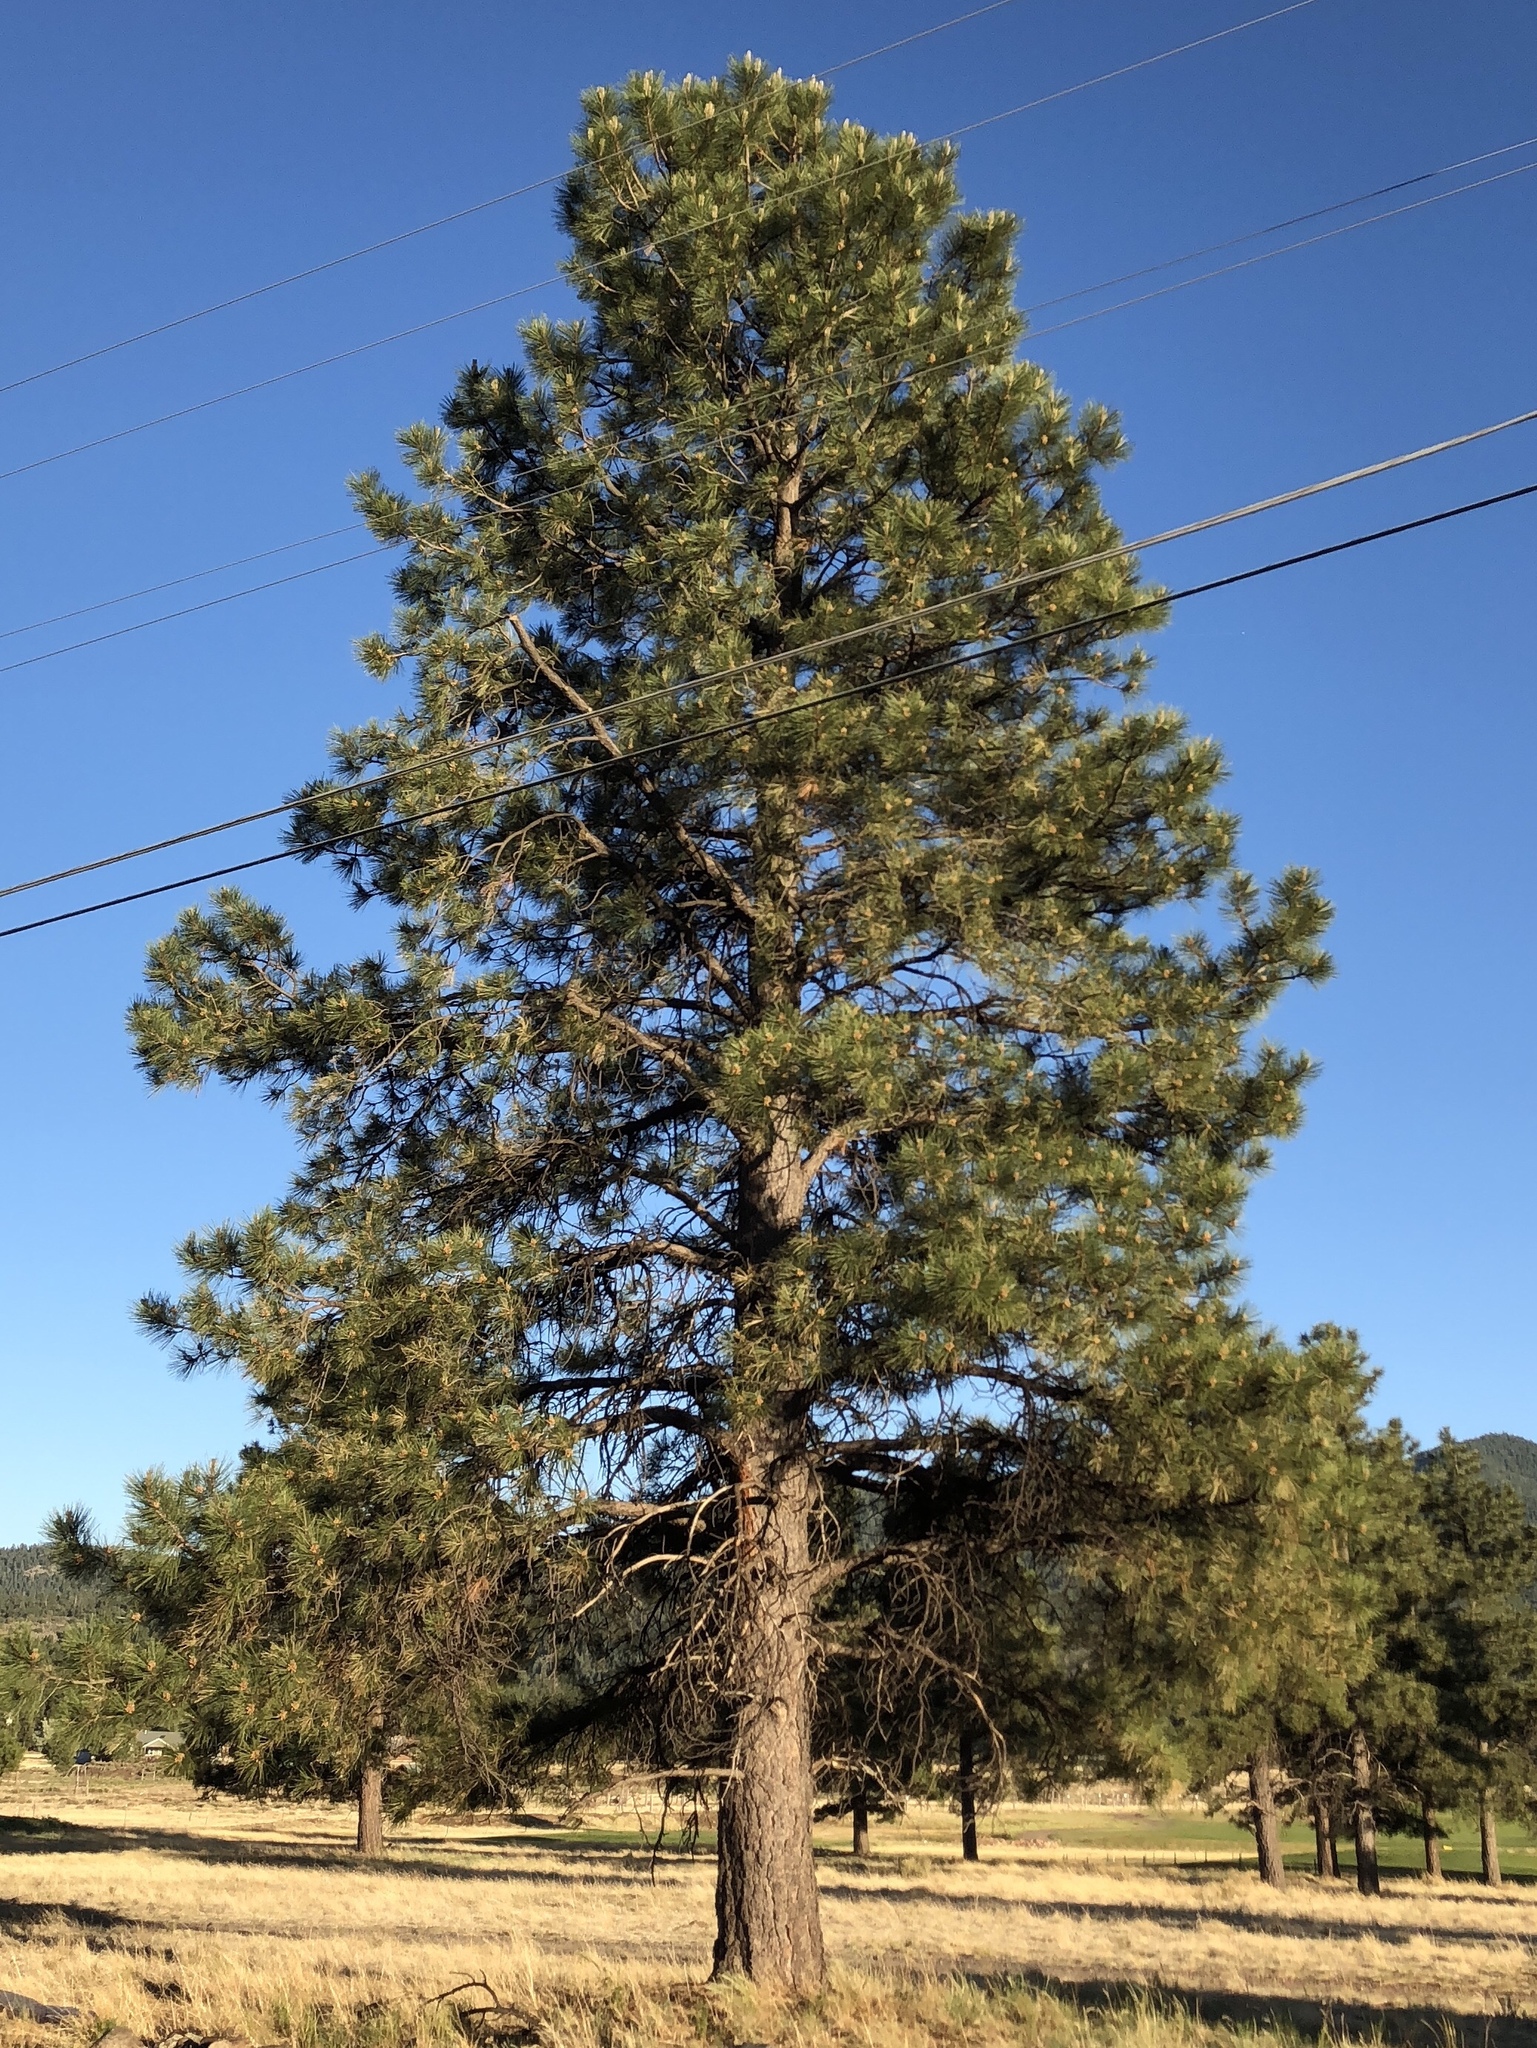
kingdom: Plantae
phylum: Tracheophyta
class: Pinopsida
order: Pinales
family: Pinaceae
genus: Pinus
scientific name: Pinus ponderosa
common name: Western yellow-pine
